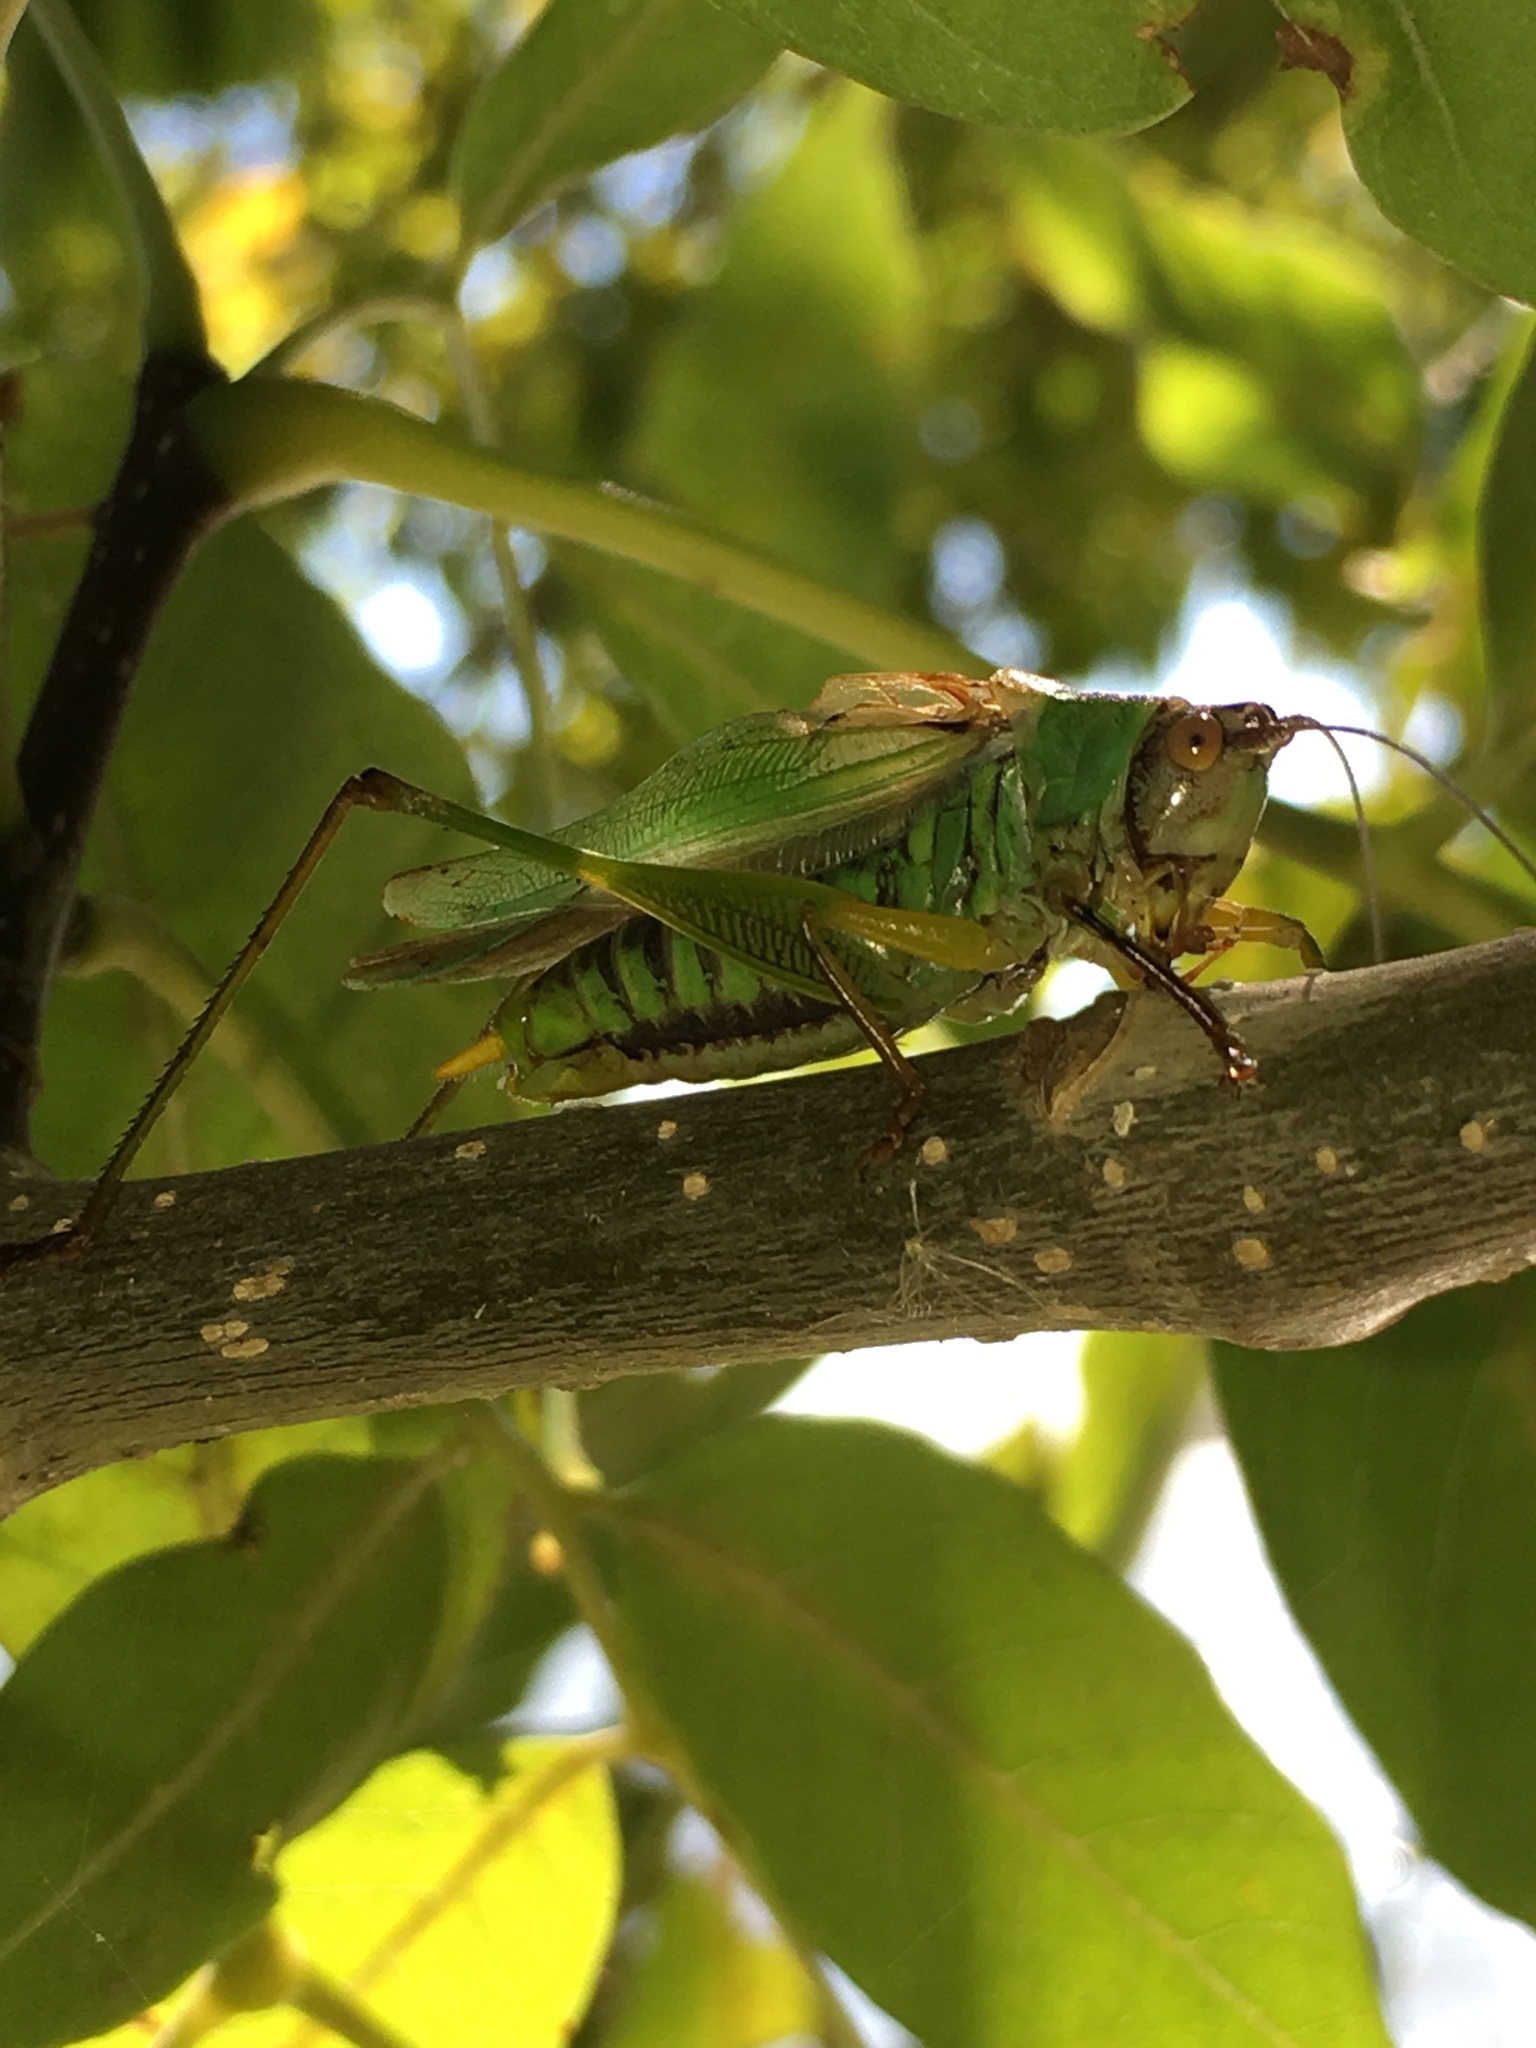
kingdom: Animalia
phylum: Arthropoda
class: Insecta
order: Orthoptera
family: Tettigoniidae
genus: Orchelimum
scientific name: Orchelimum nigripes
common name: Black-legged meadow katydid
